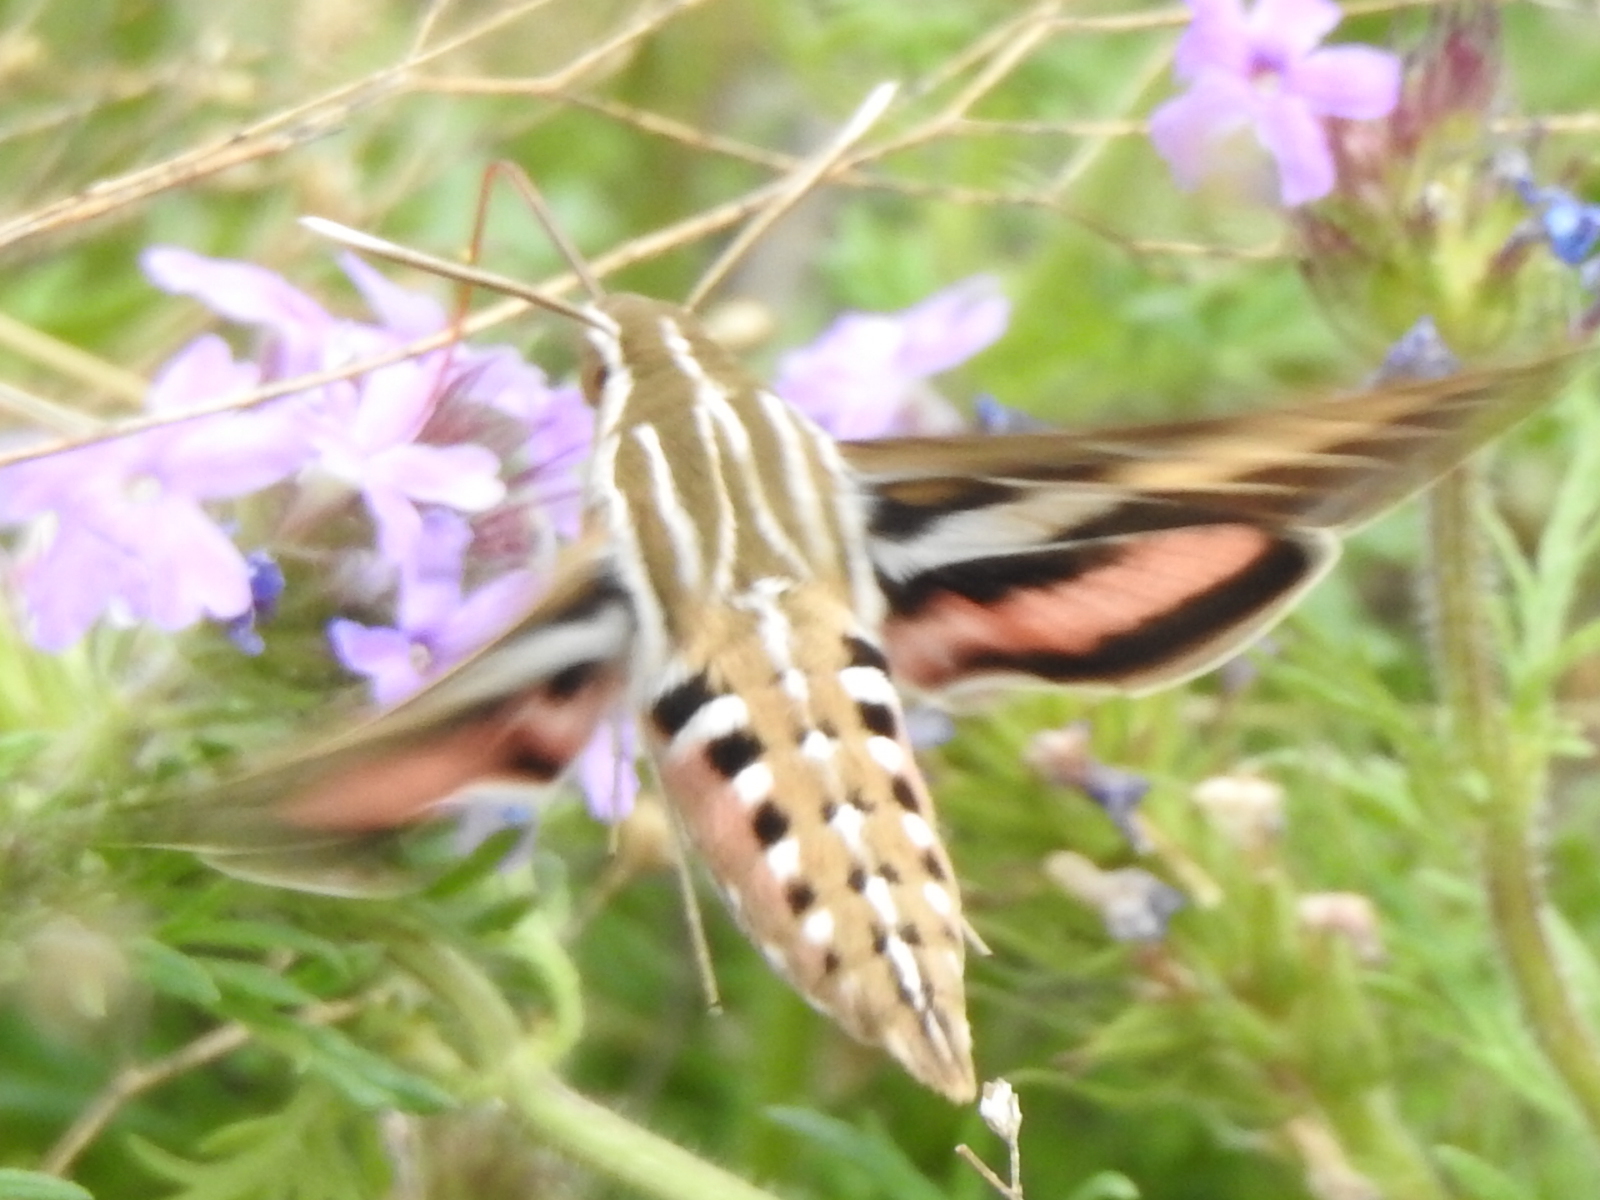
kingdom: Animalia
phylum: Arthropoda
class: Insecta
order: Lepidoptera
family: Sphingidae
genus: Hyles
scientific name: Hyles lineata
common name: White-lined sphinx
